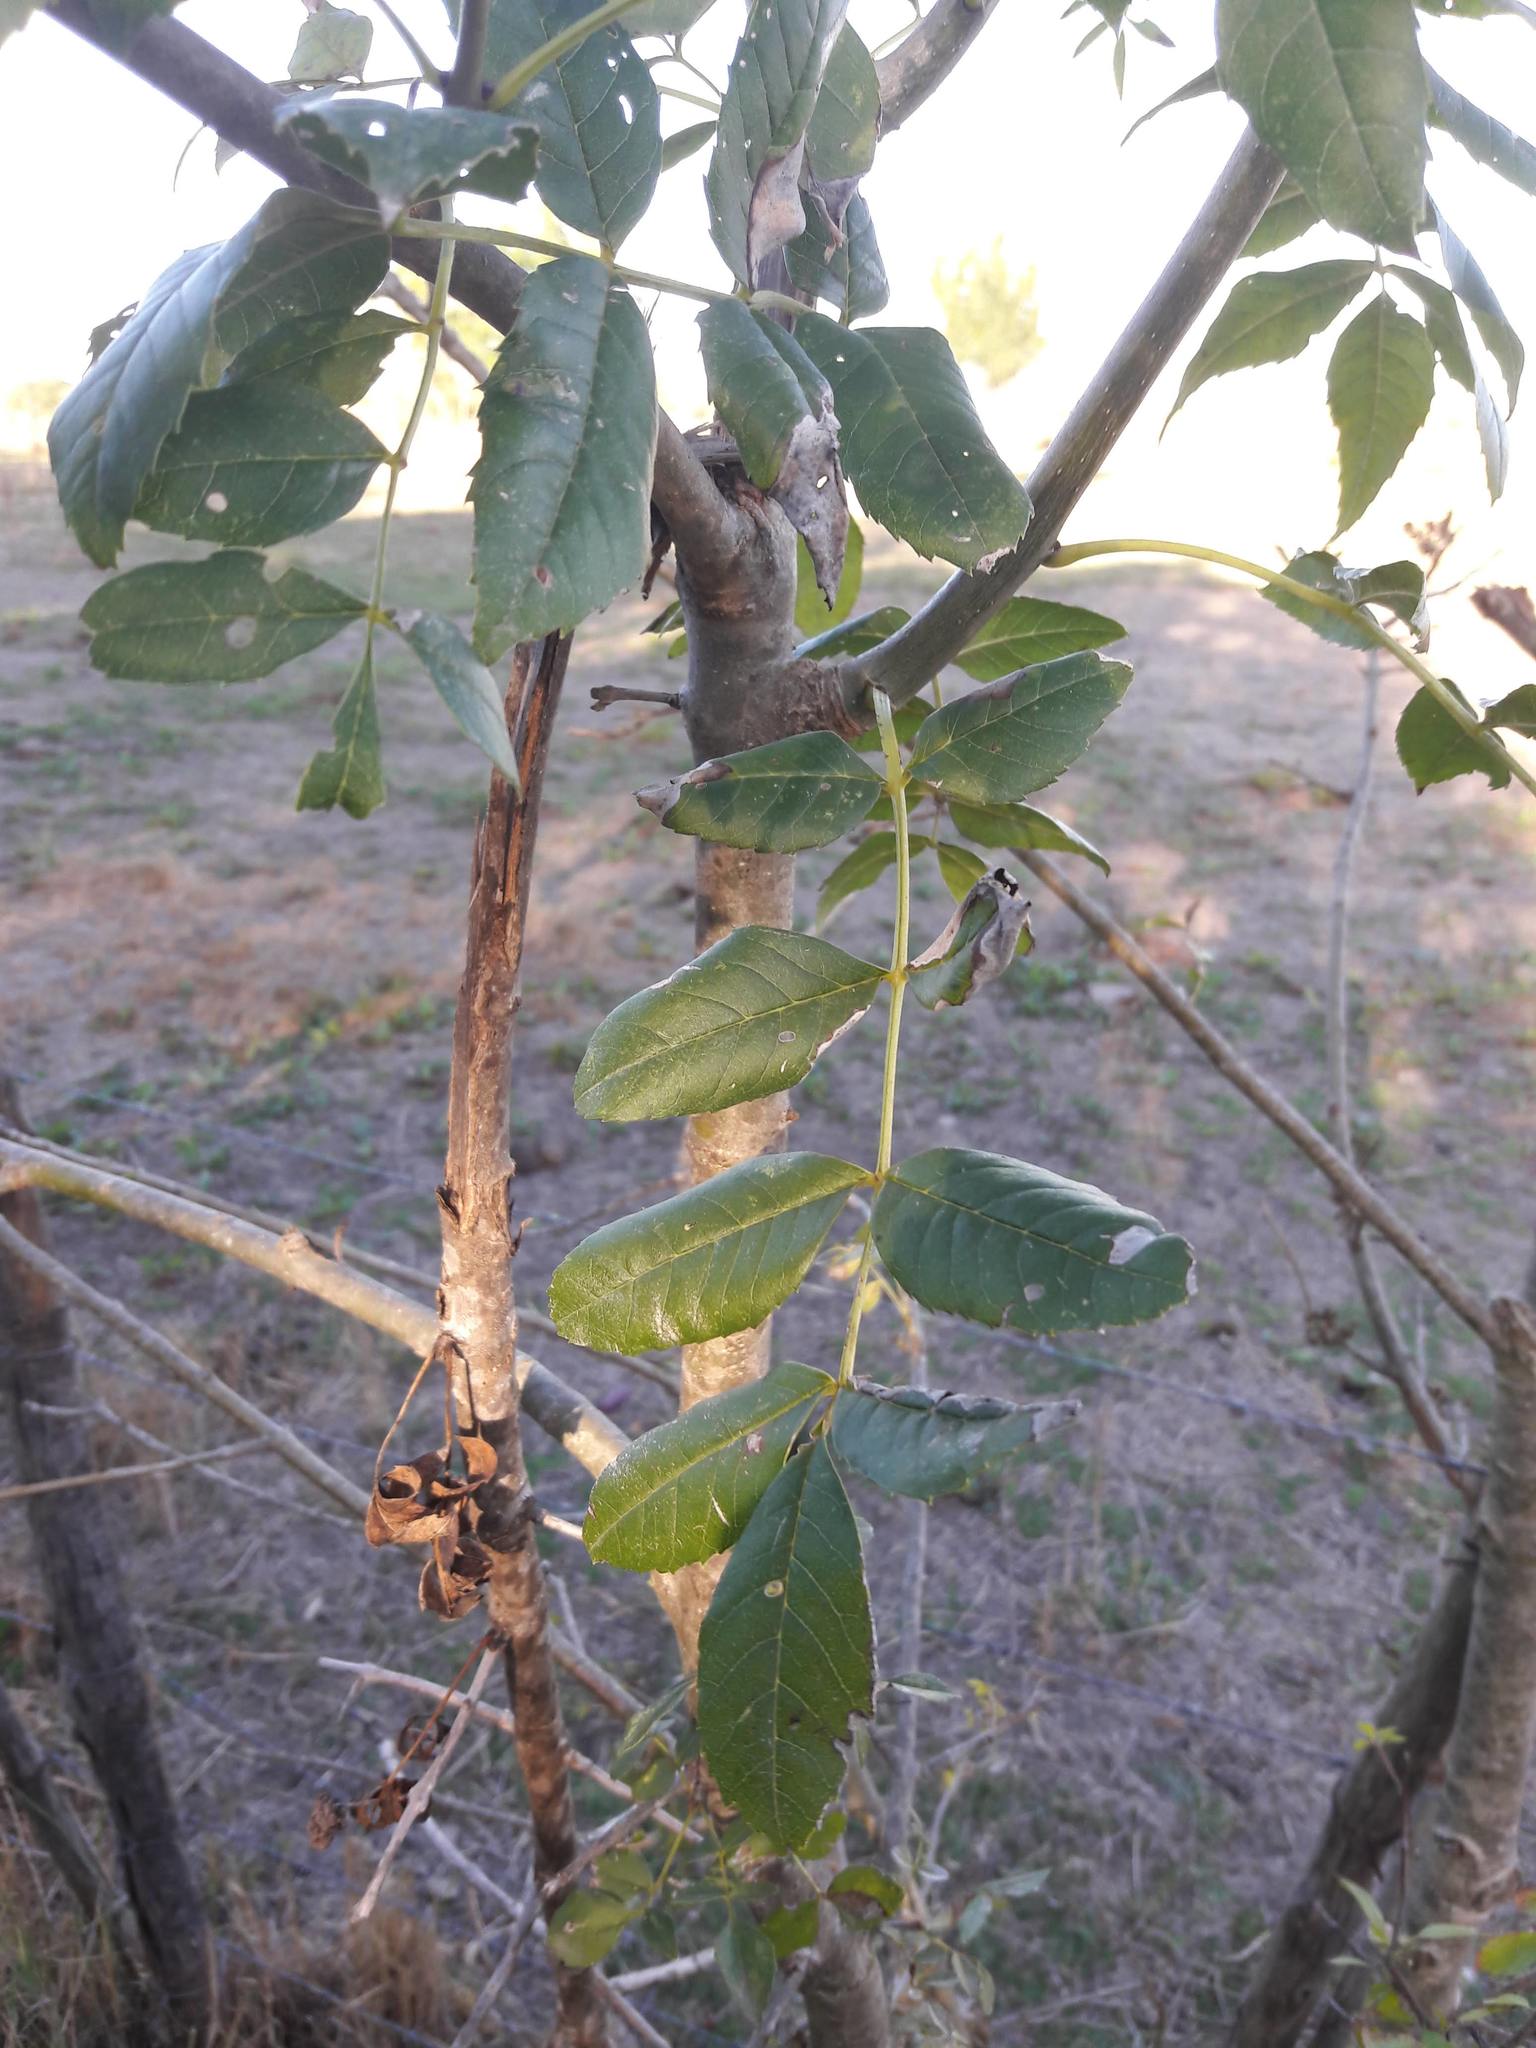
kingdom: Plantae
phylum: Tracheophyta
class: Magnoliopsida
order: Lamiales
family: Oleaceae
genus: Fraxinus
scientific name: Fraxinus angustifolia
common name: Narrow-leafed ash
